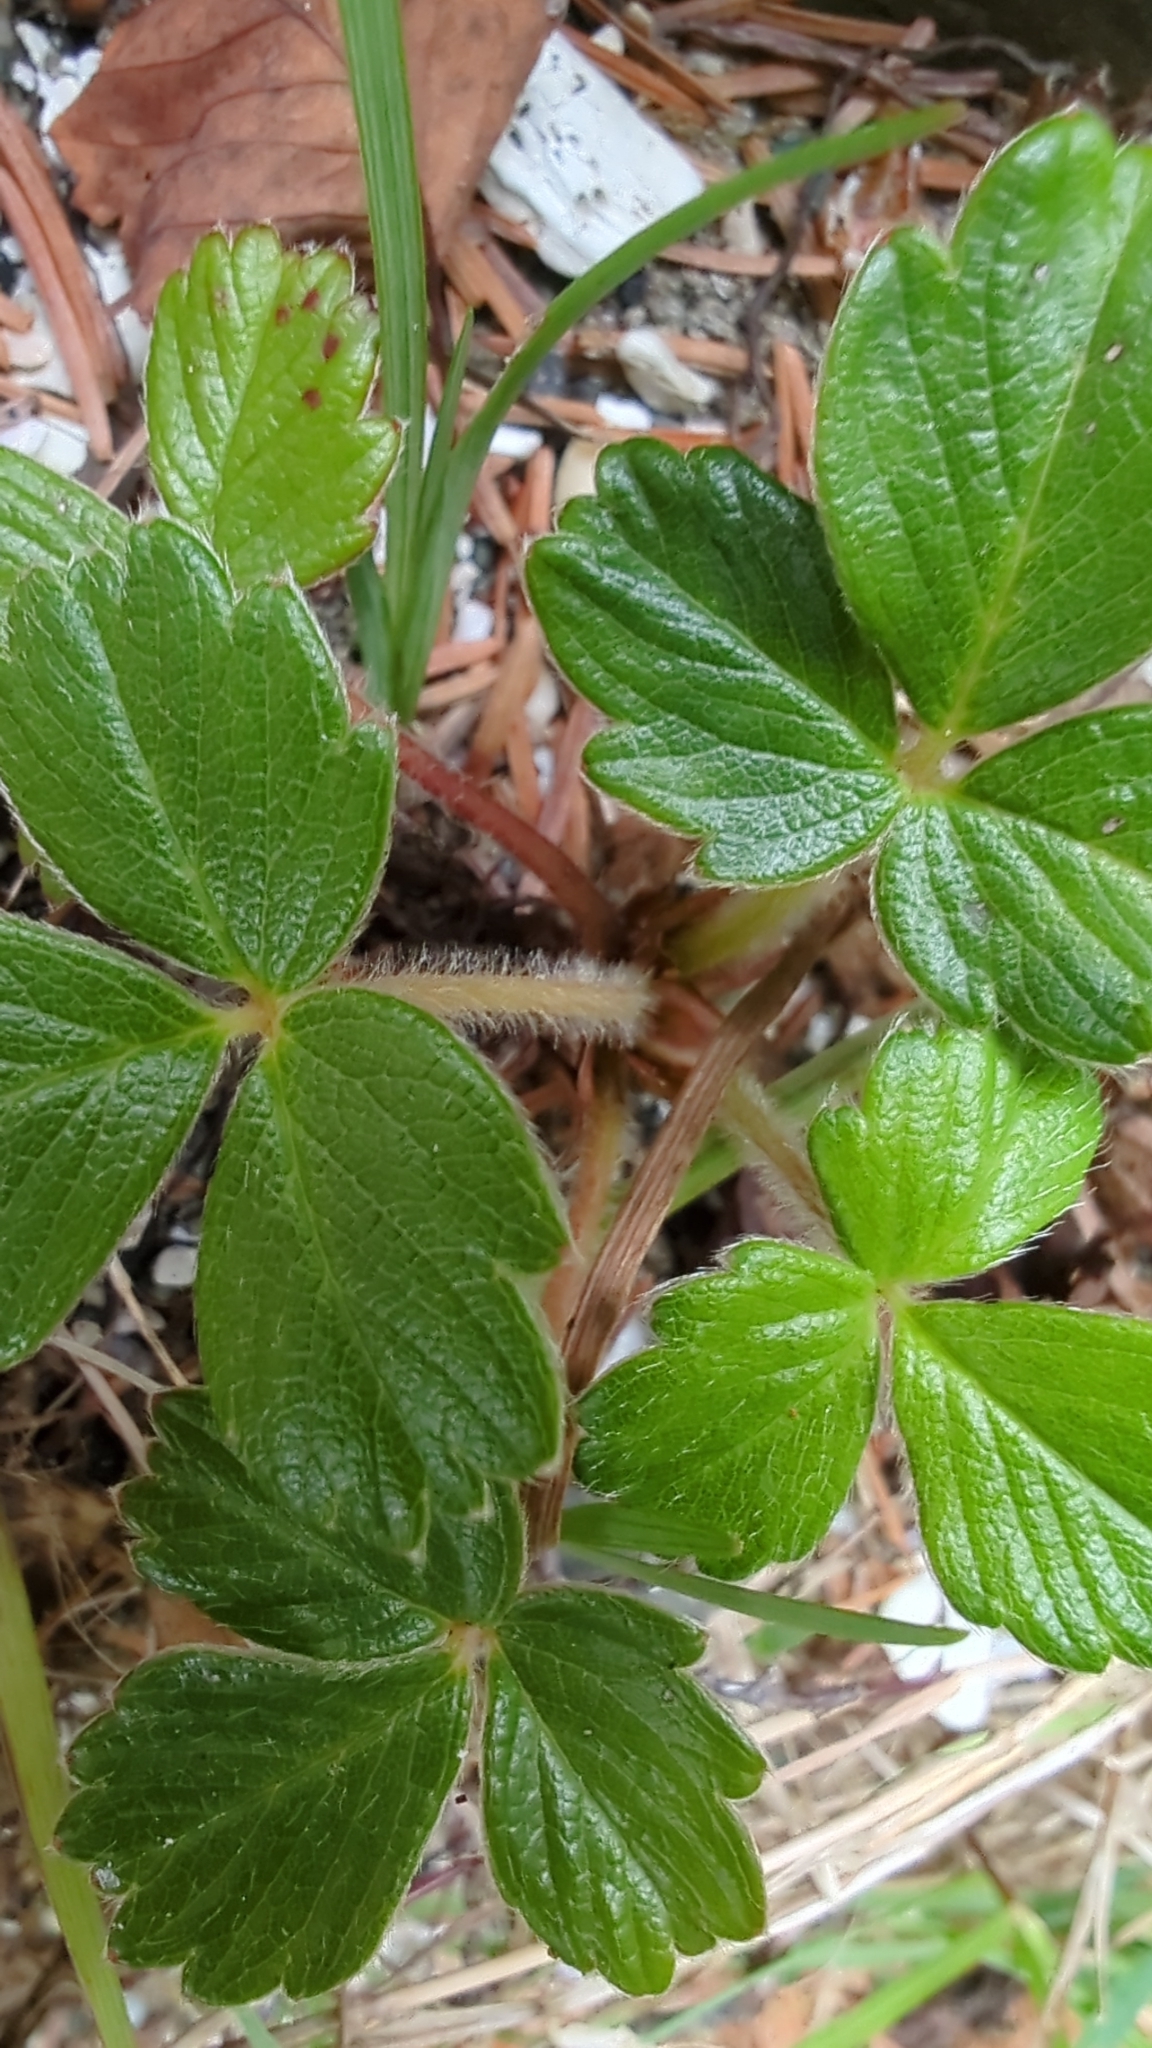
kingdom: Plantae
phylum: Tracheophyta
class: Magnoliopsida
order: Rosales
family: Rosaceae
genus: Fragaria
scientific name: Fragaria chiloensis
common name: Beach strawberry
